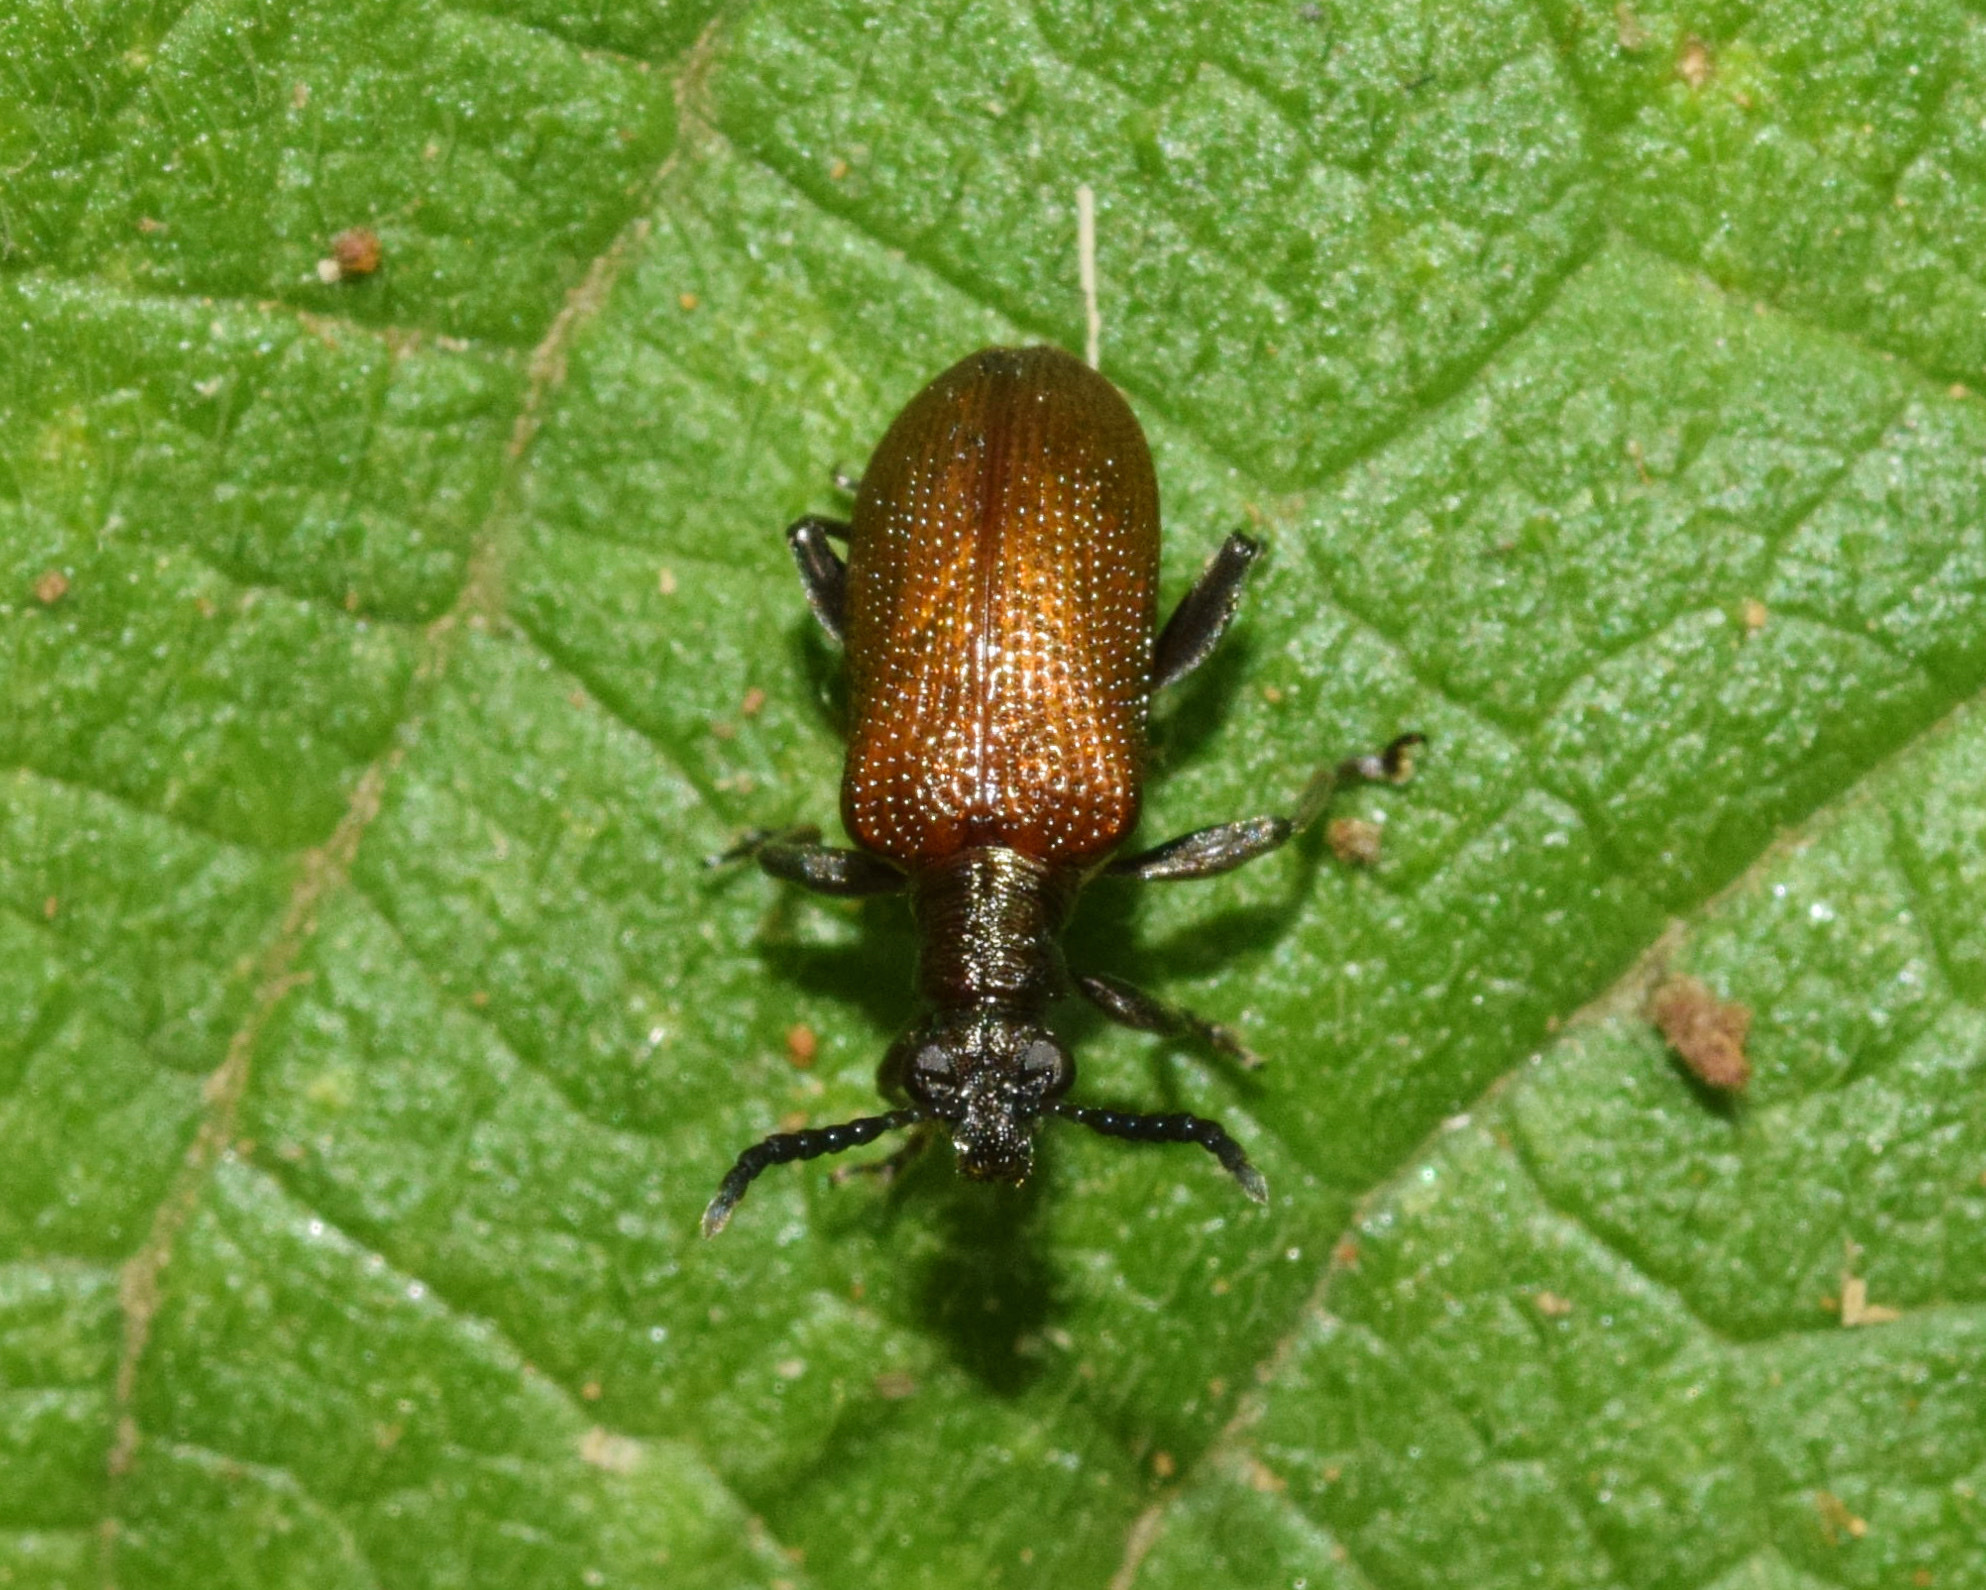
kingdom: Animalia
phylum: Arthropoda
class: Insecta
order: Coleoptera
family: Chrysomelidae
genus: Lema
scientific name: Lema
